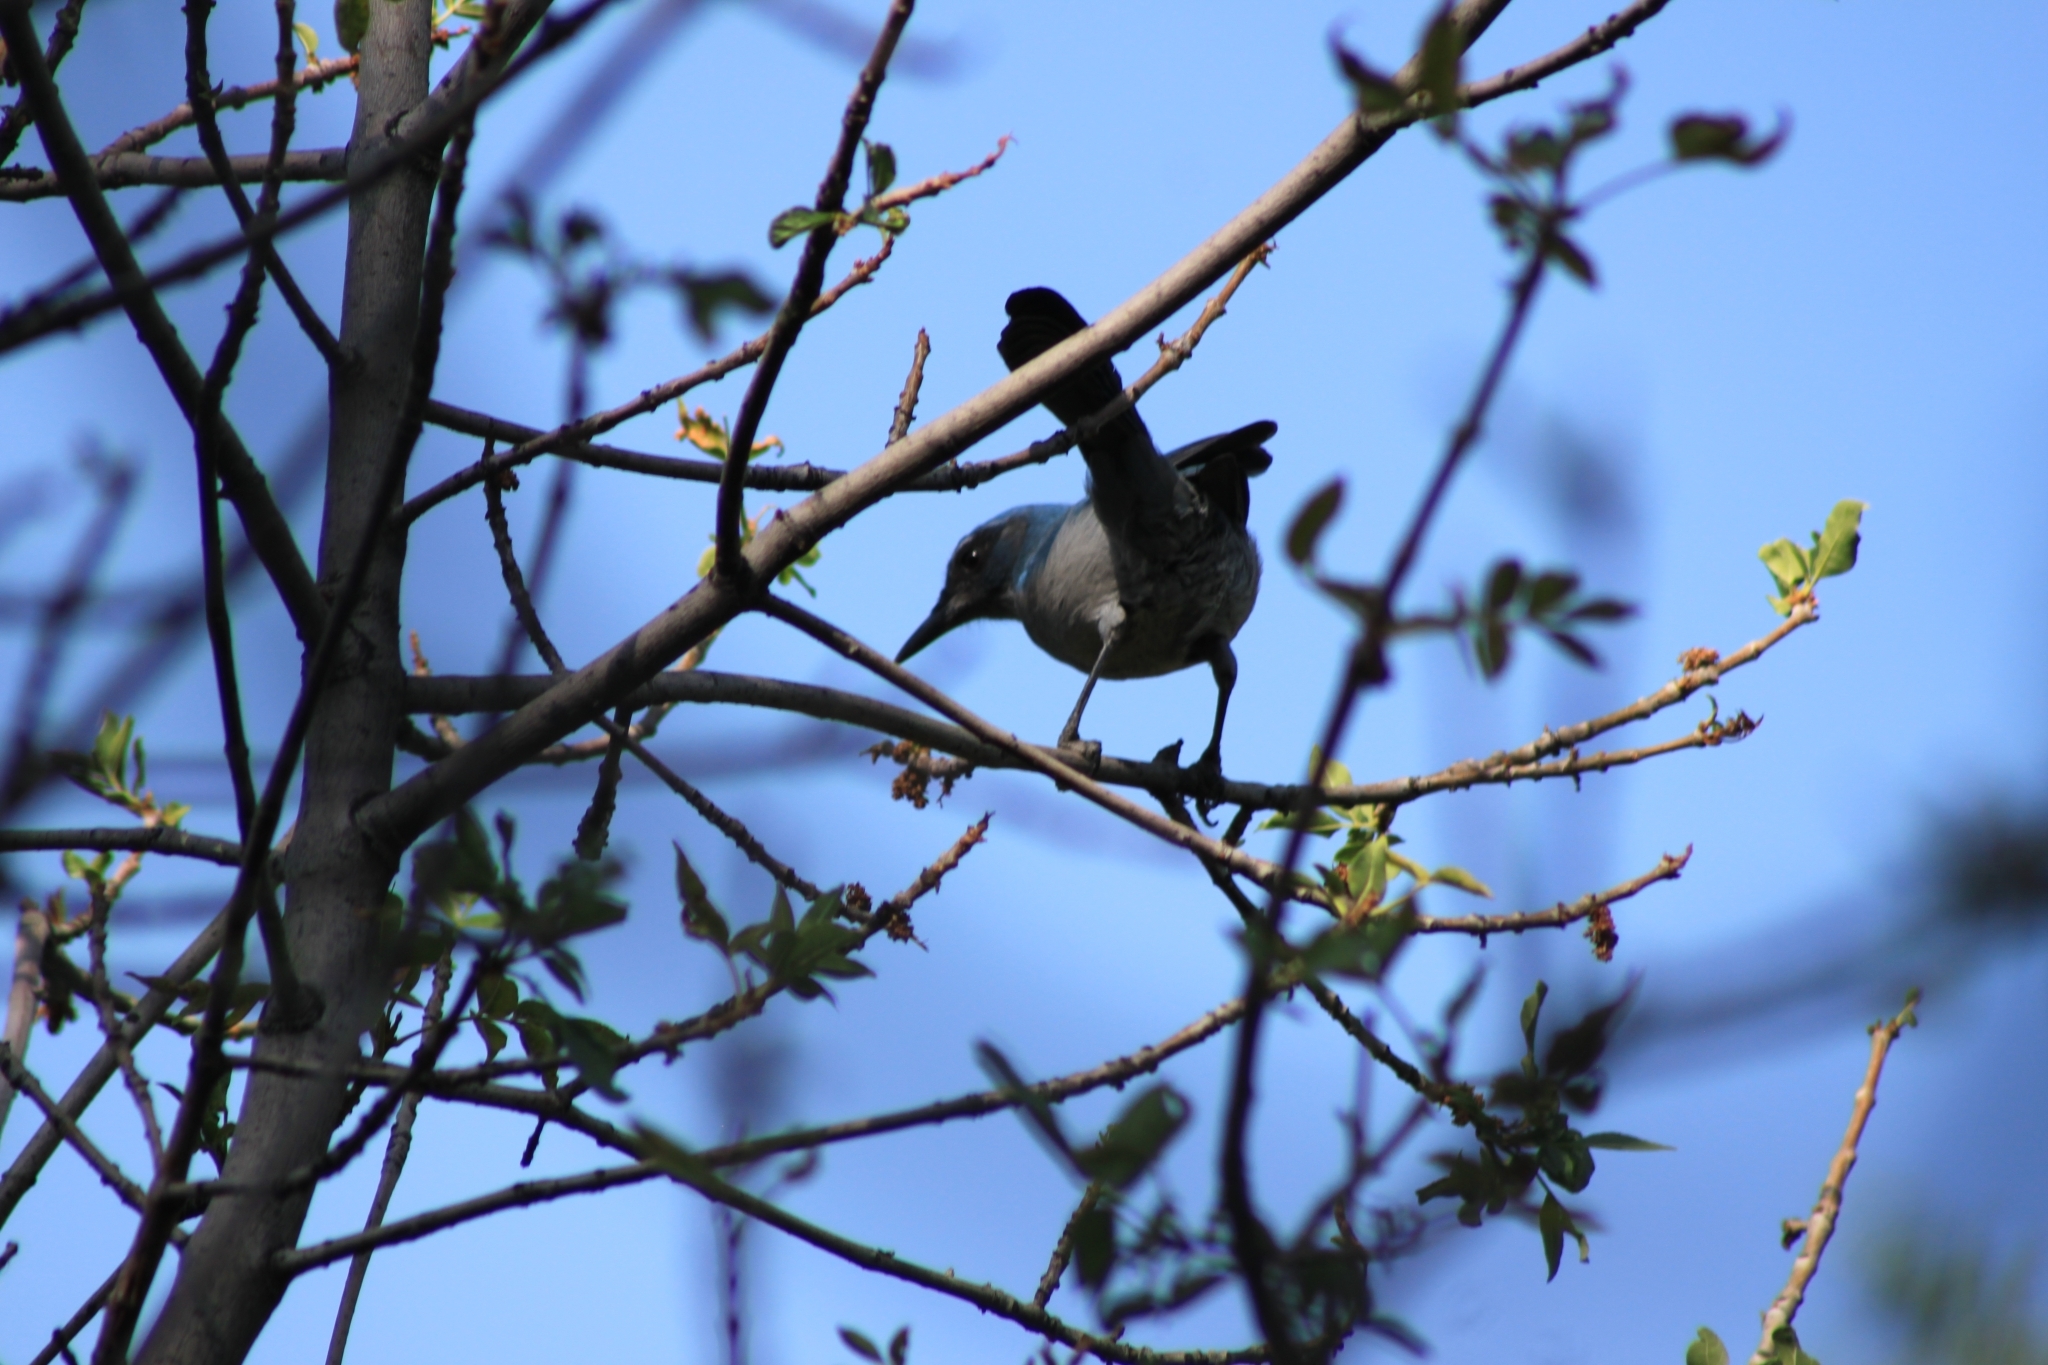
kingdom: Animalia
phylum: Chordata
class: Aves
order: Passeriformes
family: Corvidae
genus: Aphelocoma
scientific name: Aphelocoma woodhouseii
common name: Woodhouse's scrub-jay
